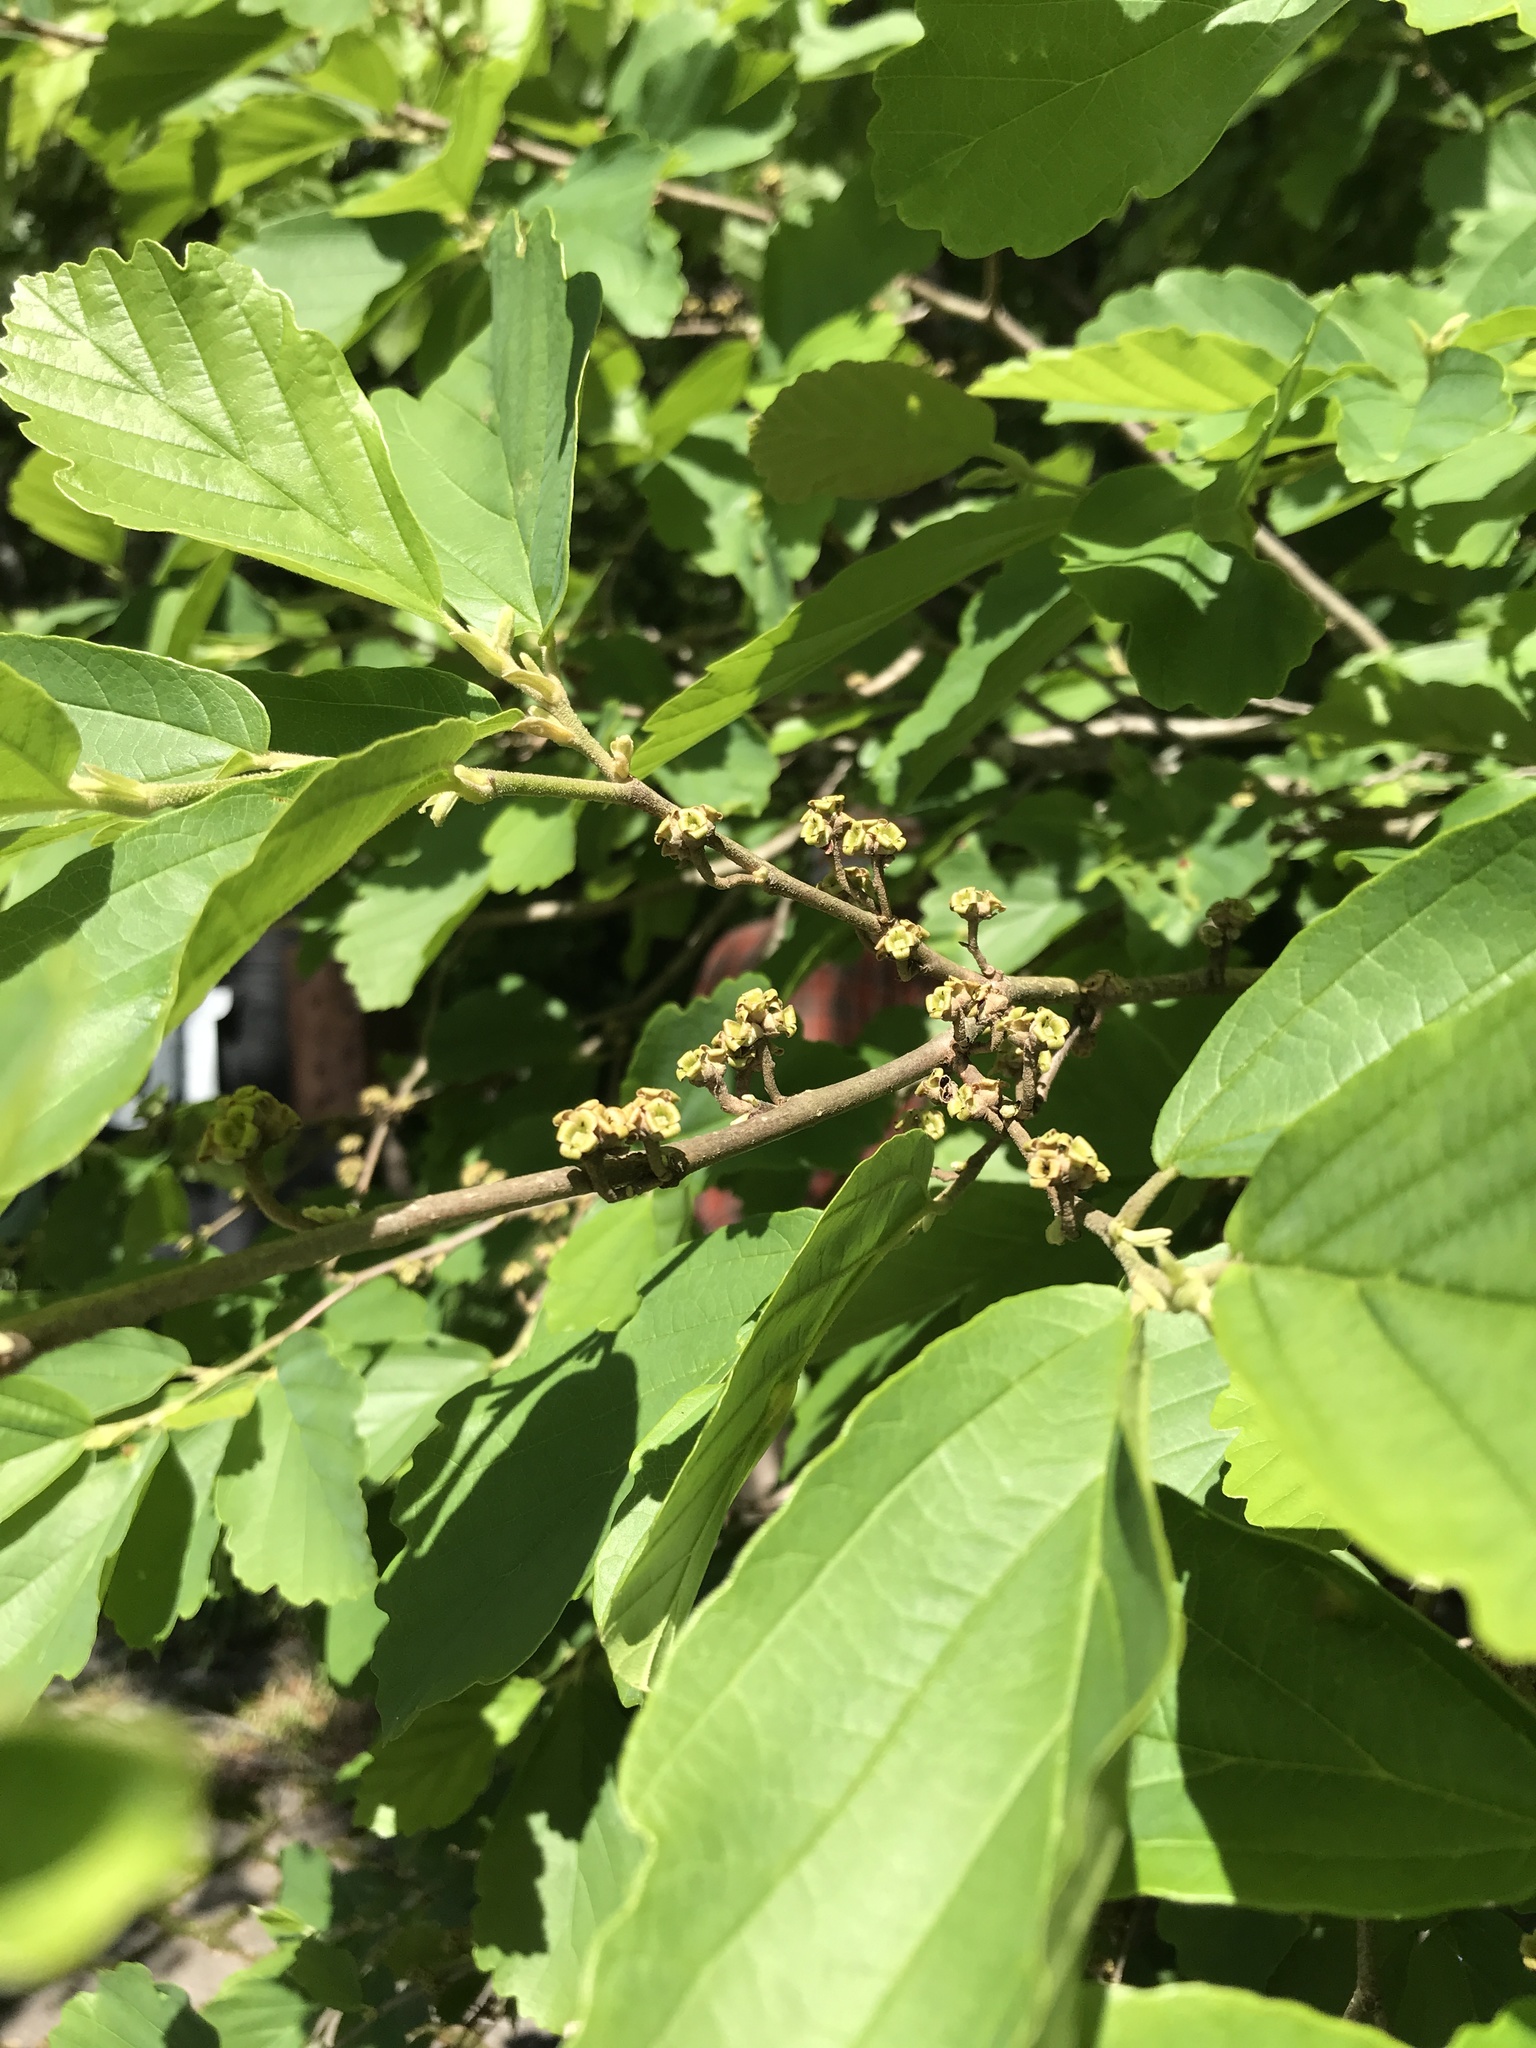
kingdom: Plantae
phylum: Tracheophyta
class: Magnoliopsida
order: Saxifragales
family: Hamamelidaceae
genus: Hamamelis
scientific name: Hamamelis virginiana
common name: Witch-hazel
